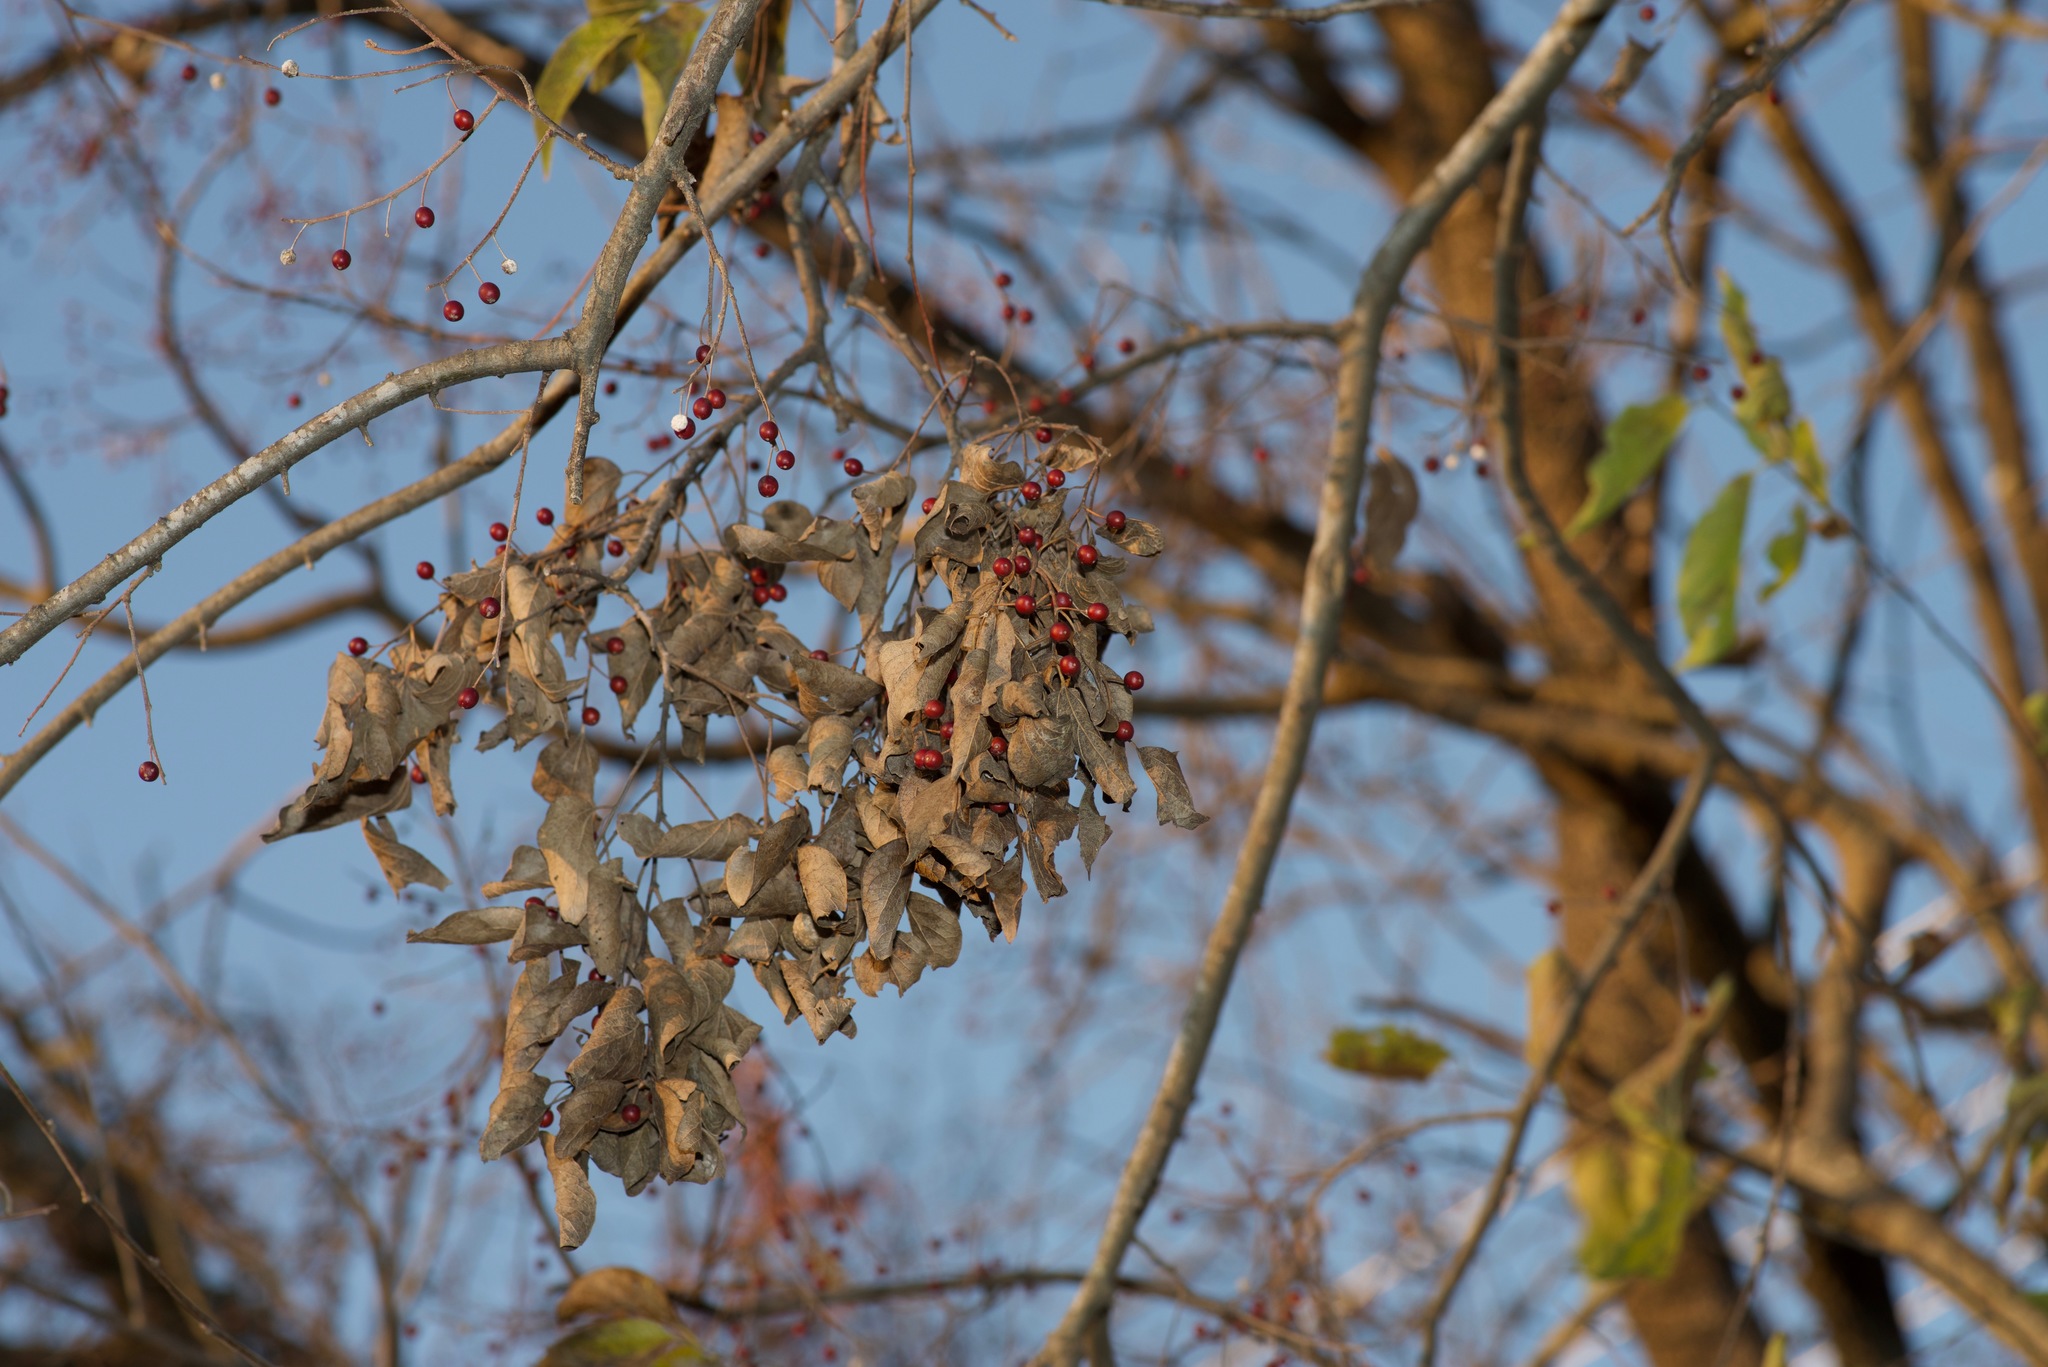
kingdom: Plantae
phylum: Tracheophyta
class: Magnoliopsida
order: Rosales
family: Cannabaceae
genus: Celtis
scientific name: Celtis laevigata
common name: Sugarberry
